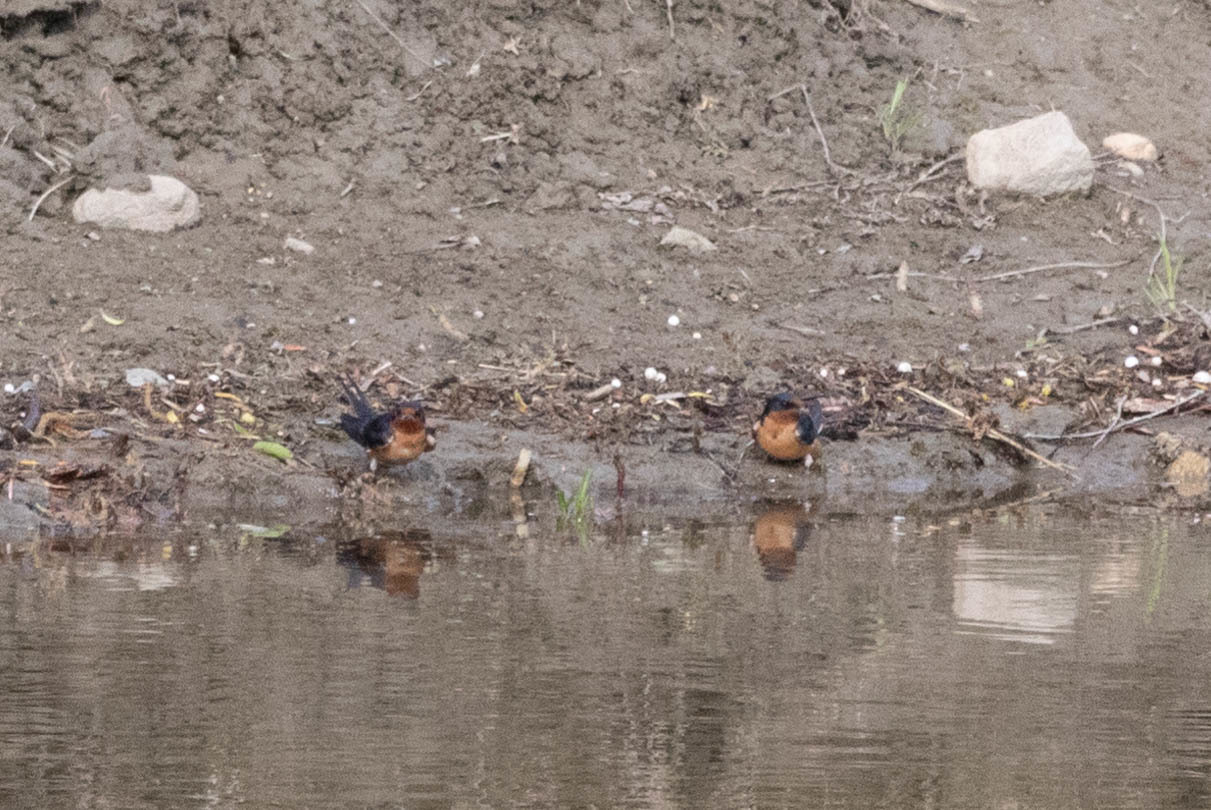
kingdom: Animalia
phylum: Chordata
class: Aves
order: Passeriformes
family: Hirundinidae
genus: Hirundo
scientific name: Hirundo rustica
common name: Barn swallow
